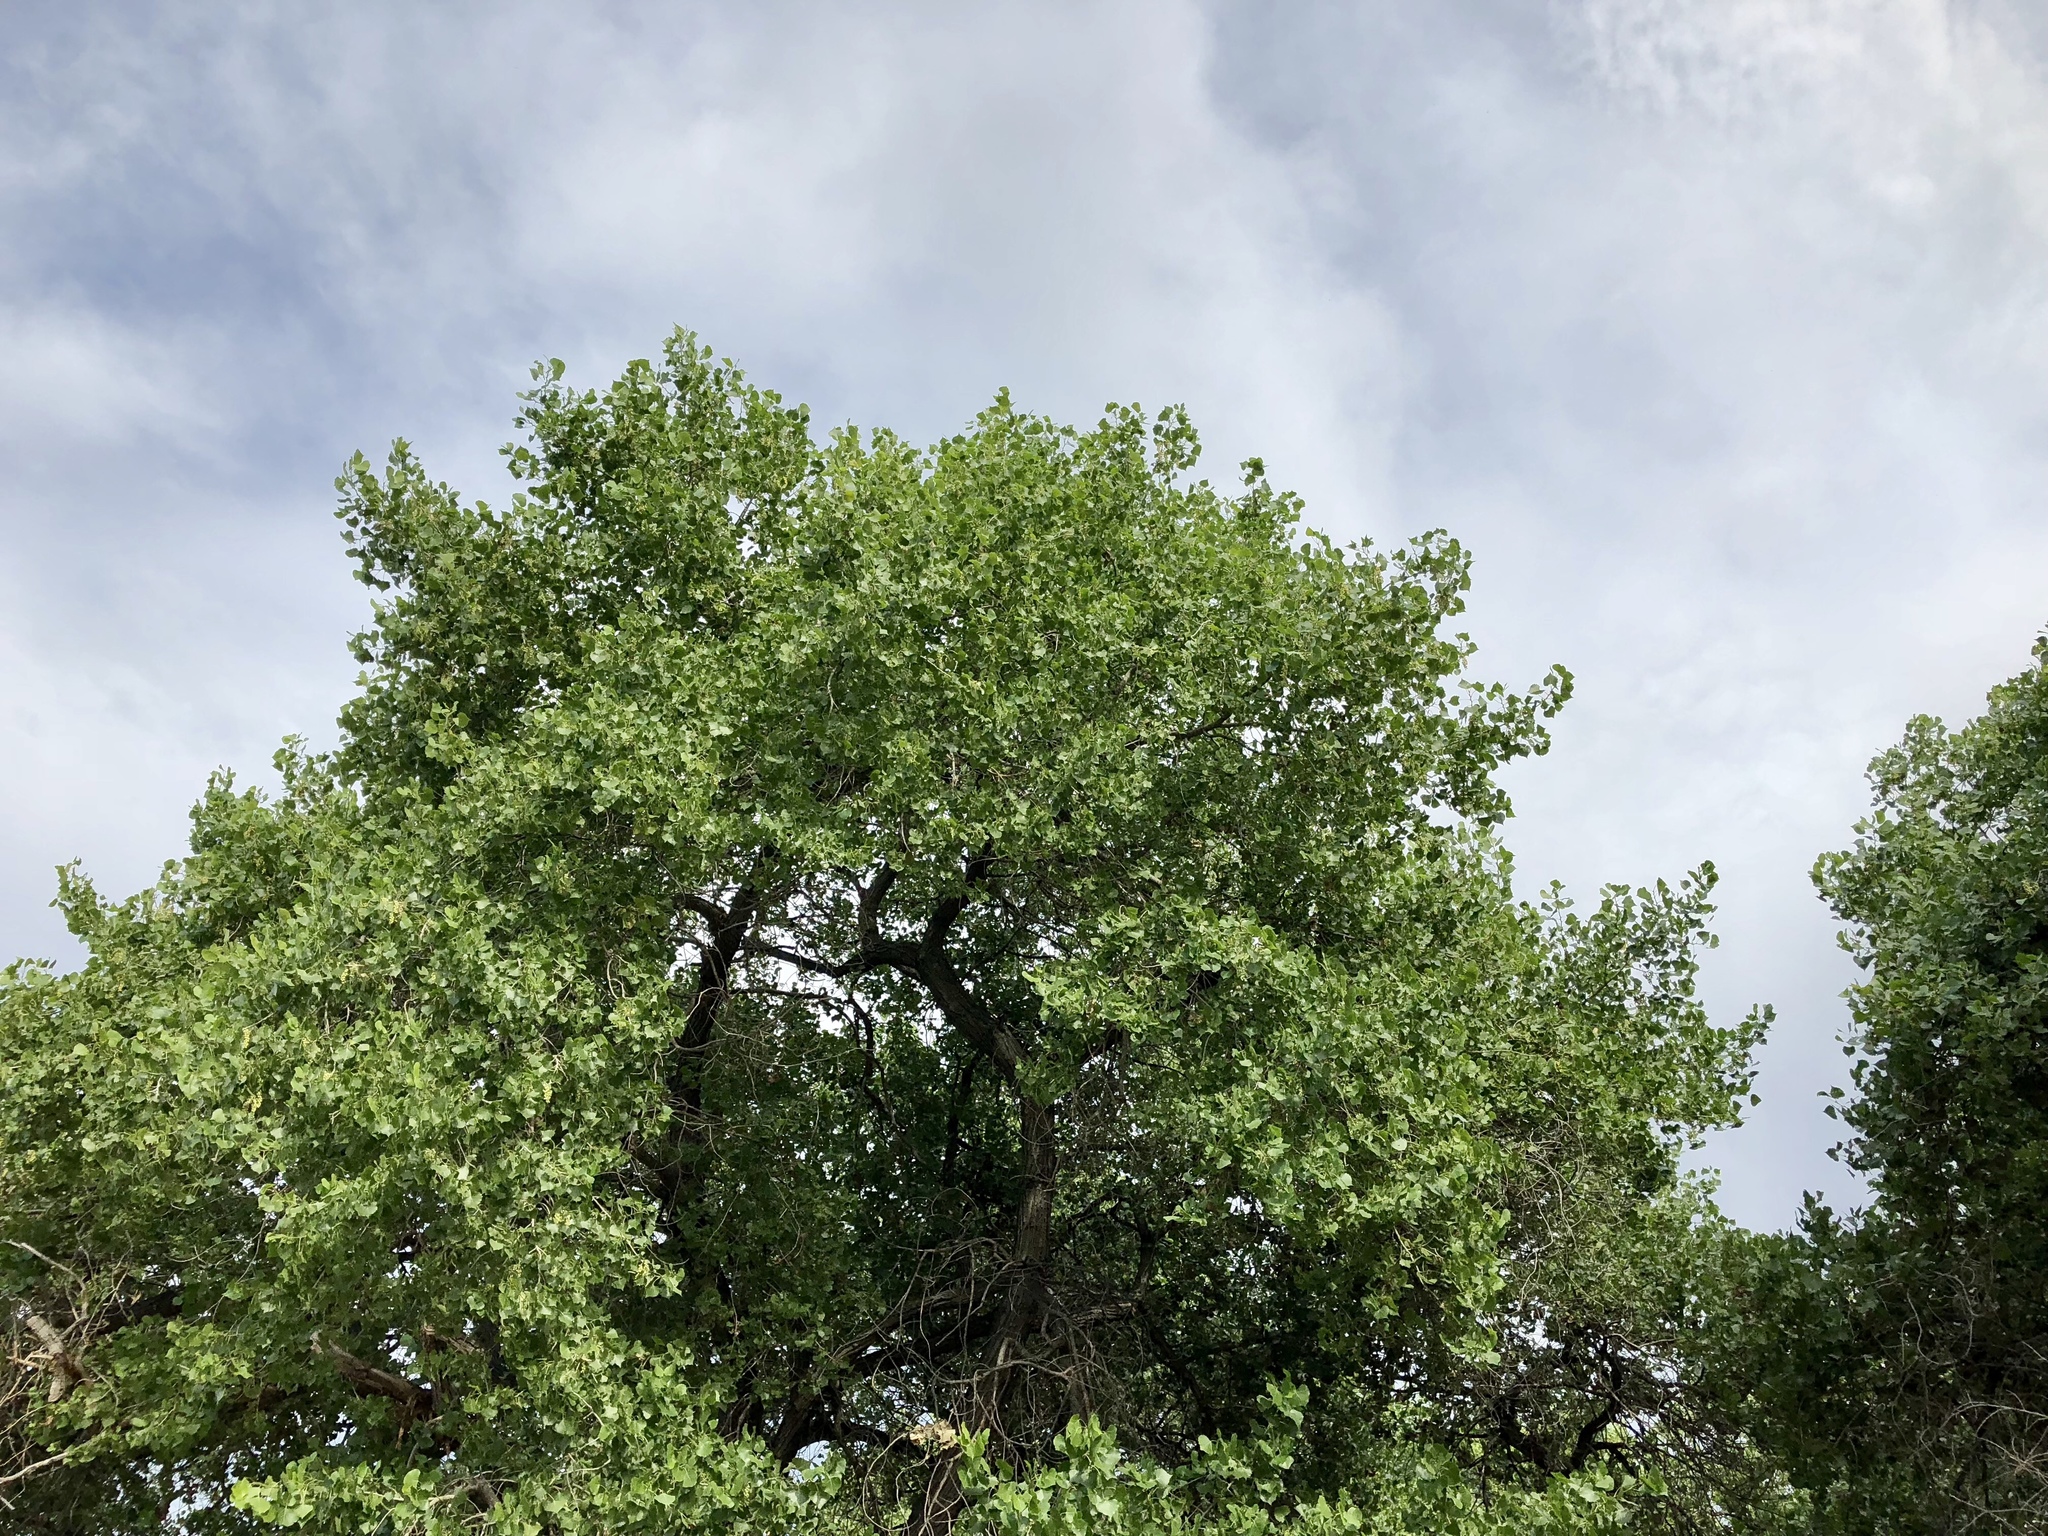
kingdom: Plantae
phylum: Tracheophyta
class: Magnoliopsida
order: Malpighiales
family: Salicaceae
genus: Populus
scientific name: Populus fremontii
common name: Fremont's cottonwood
